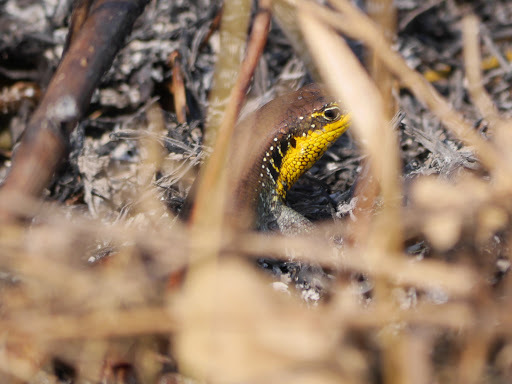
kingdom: Animalia
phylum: Chordata
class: Squamata
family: Scincidae
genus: Trachylepis
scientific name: Trachylepis quinquetaeniata
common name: African five-lined skink
